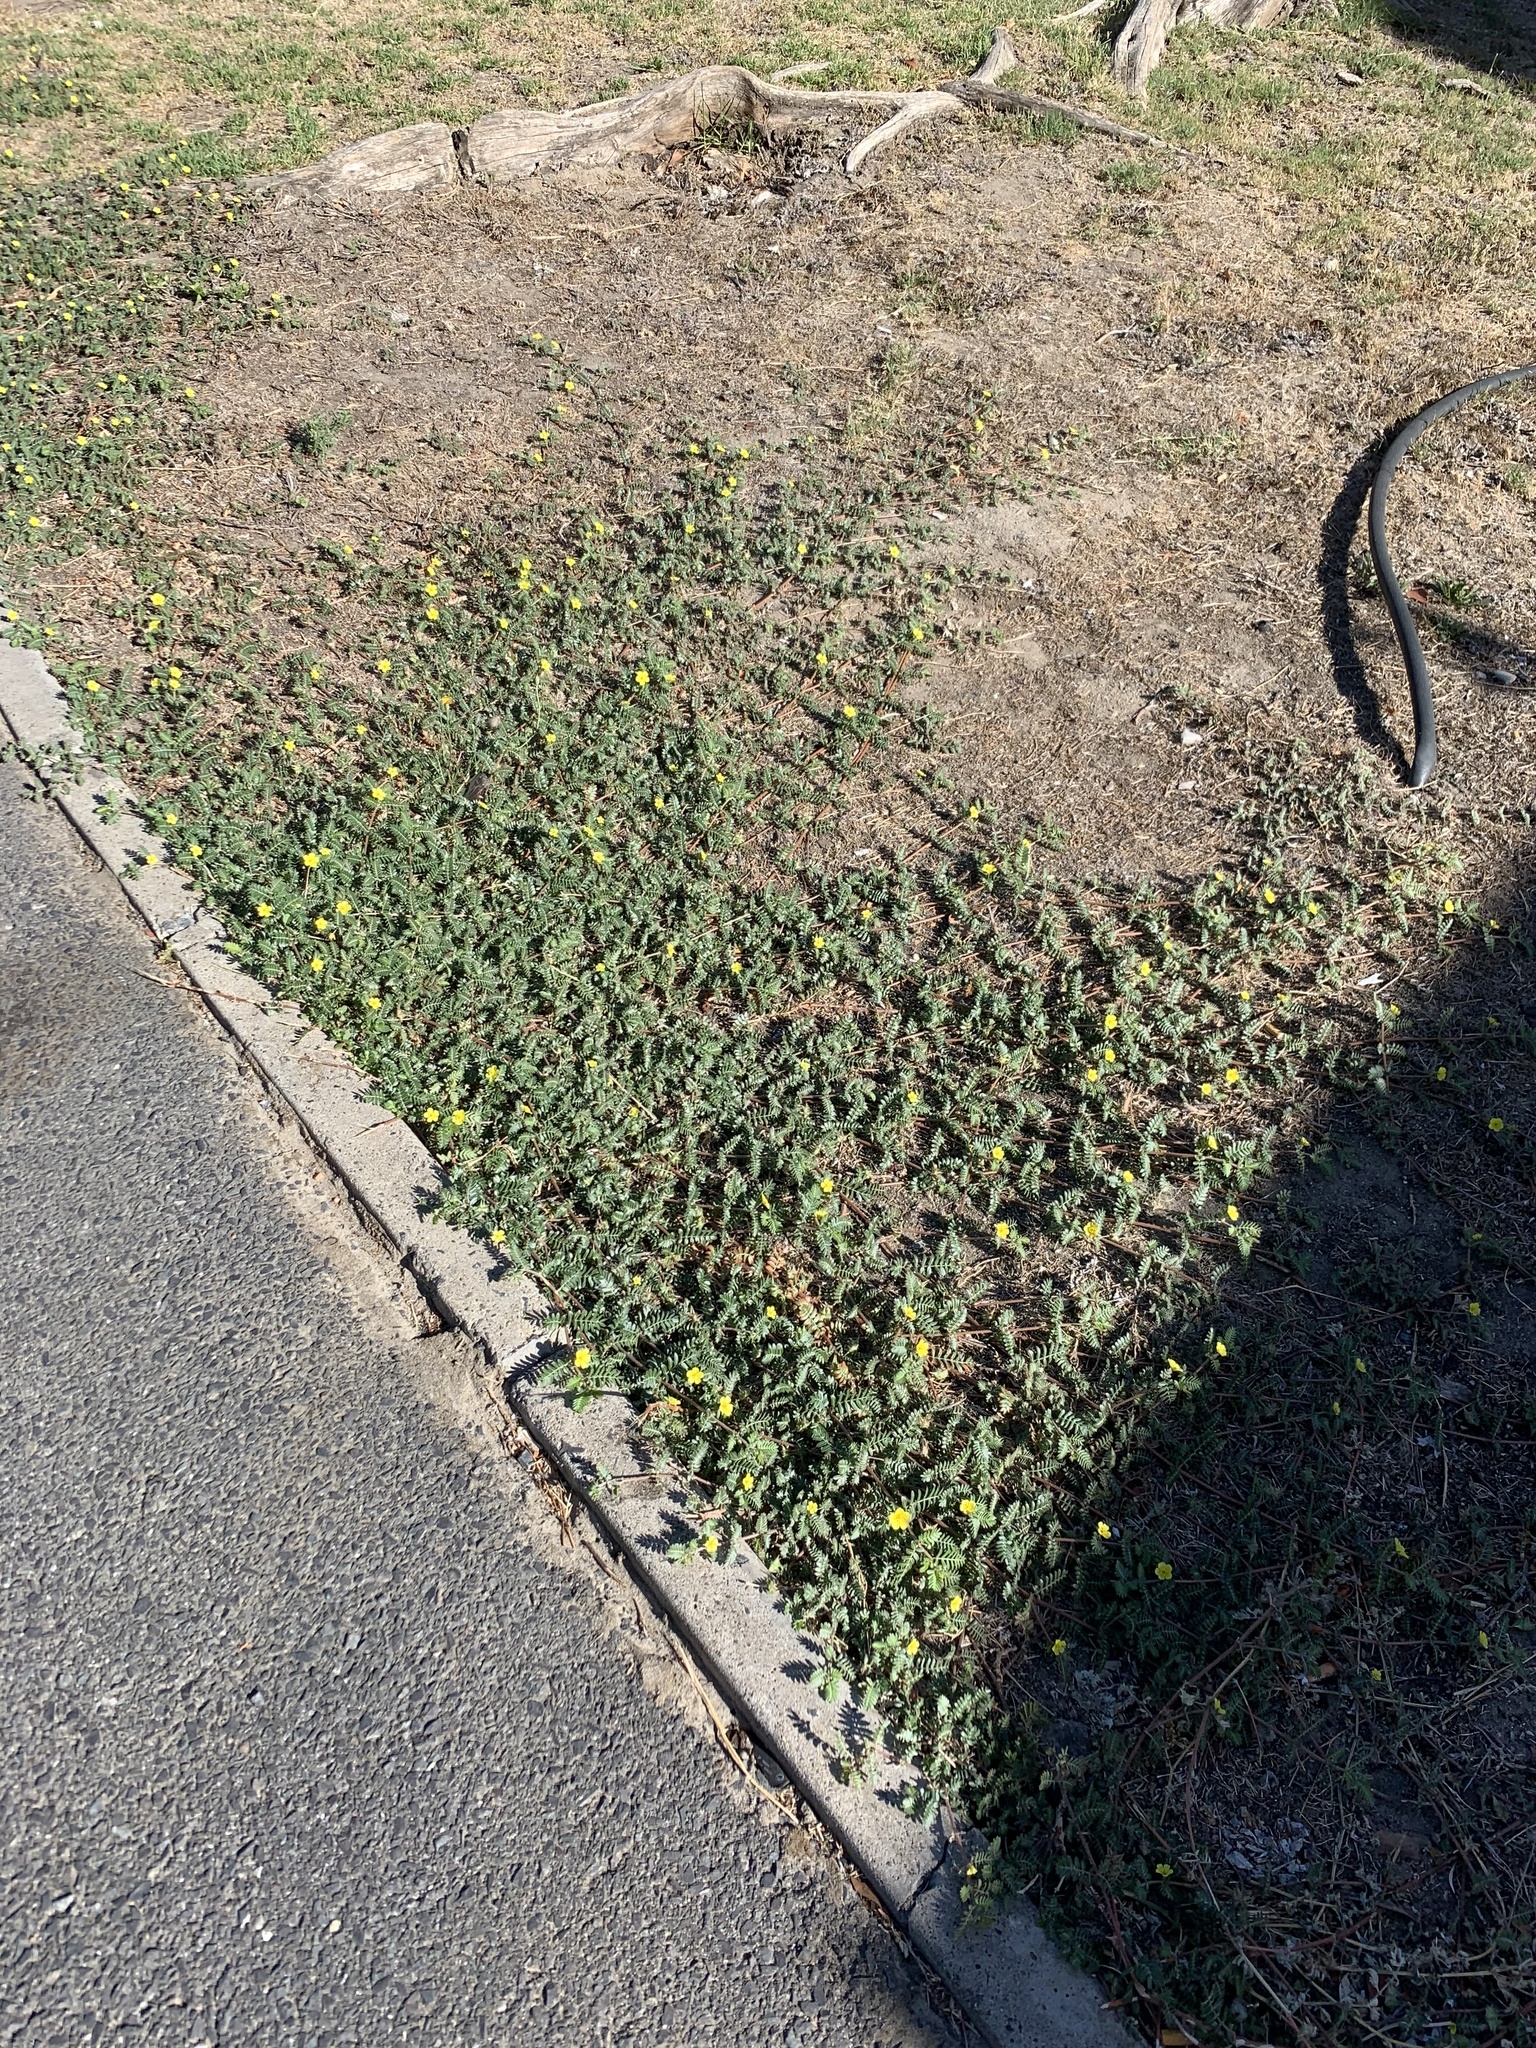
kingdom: Plantae
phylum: Tracheophyta
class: Magnoliopsida
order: Zygophyllales
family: Zygophyllaceae
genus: Tribulus
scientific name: Tribulus terrestris
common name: Puncturevine
